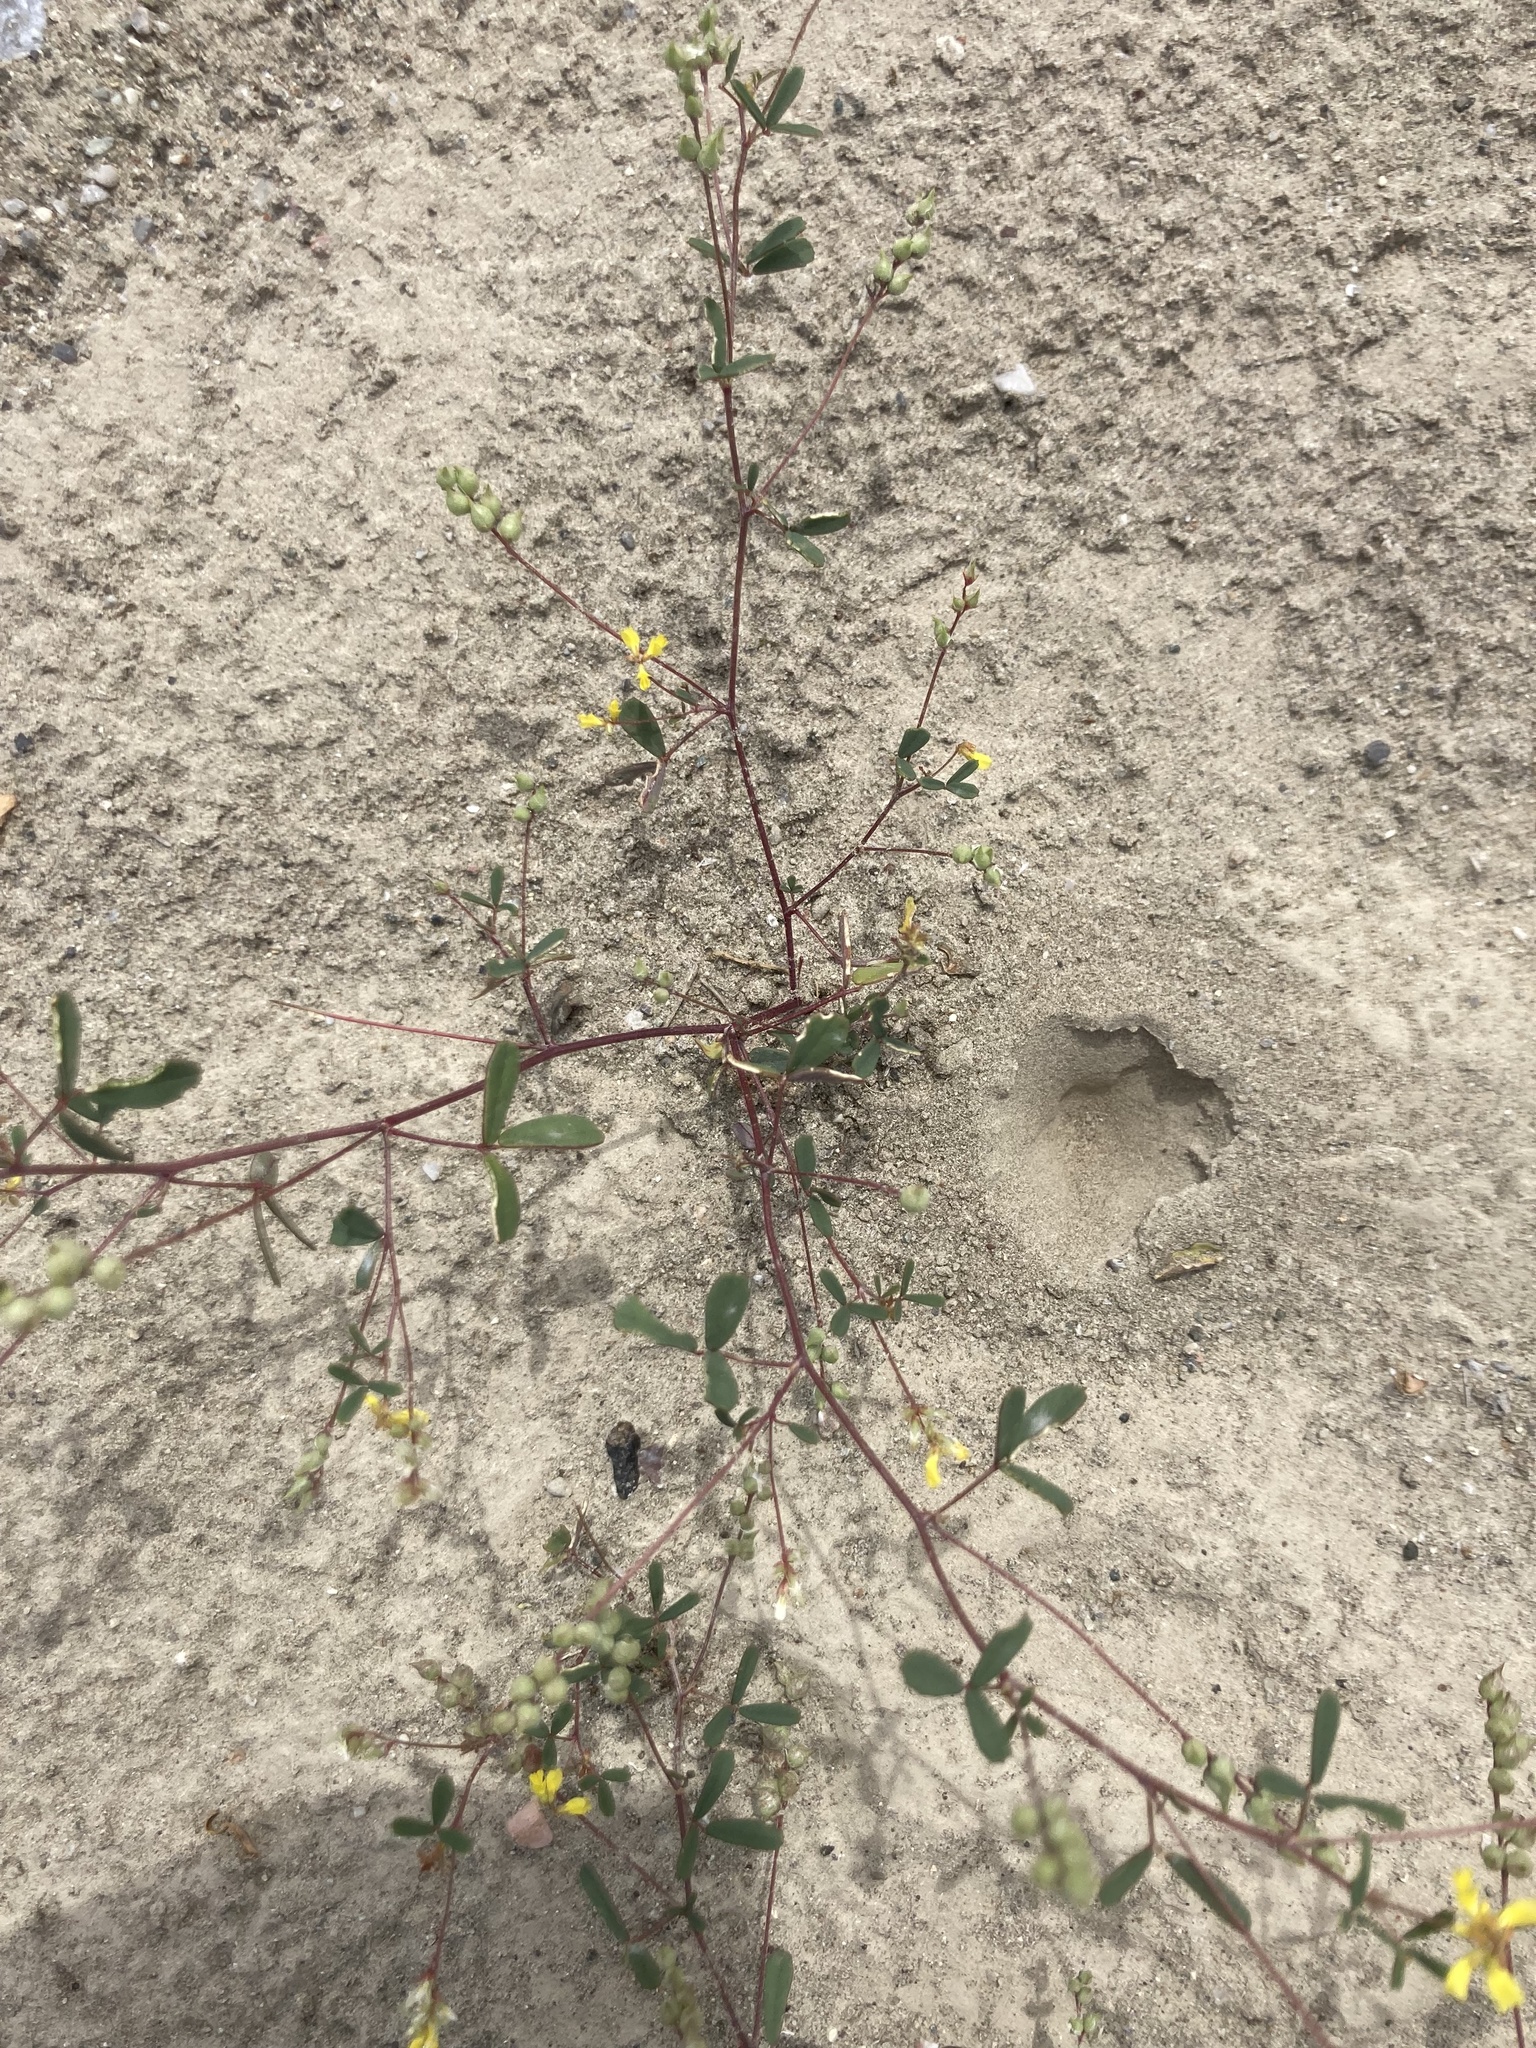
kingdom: Plantae
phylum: Tracheophyta
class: Magnoliopsida
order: Fabales
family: Fabaceae
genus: Melilotus
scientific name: Melilotus neapolitanus
